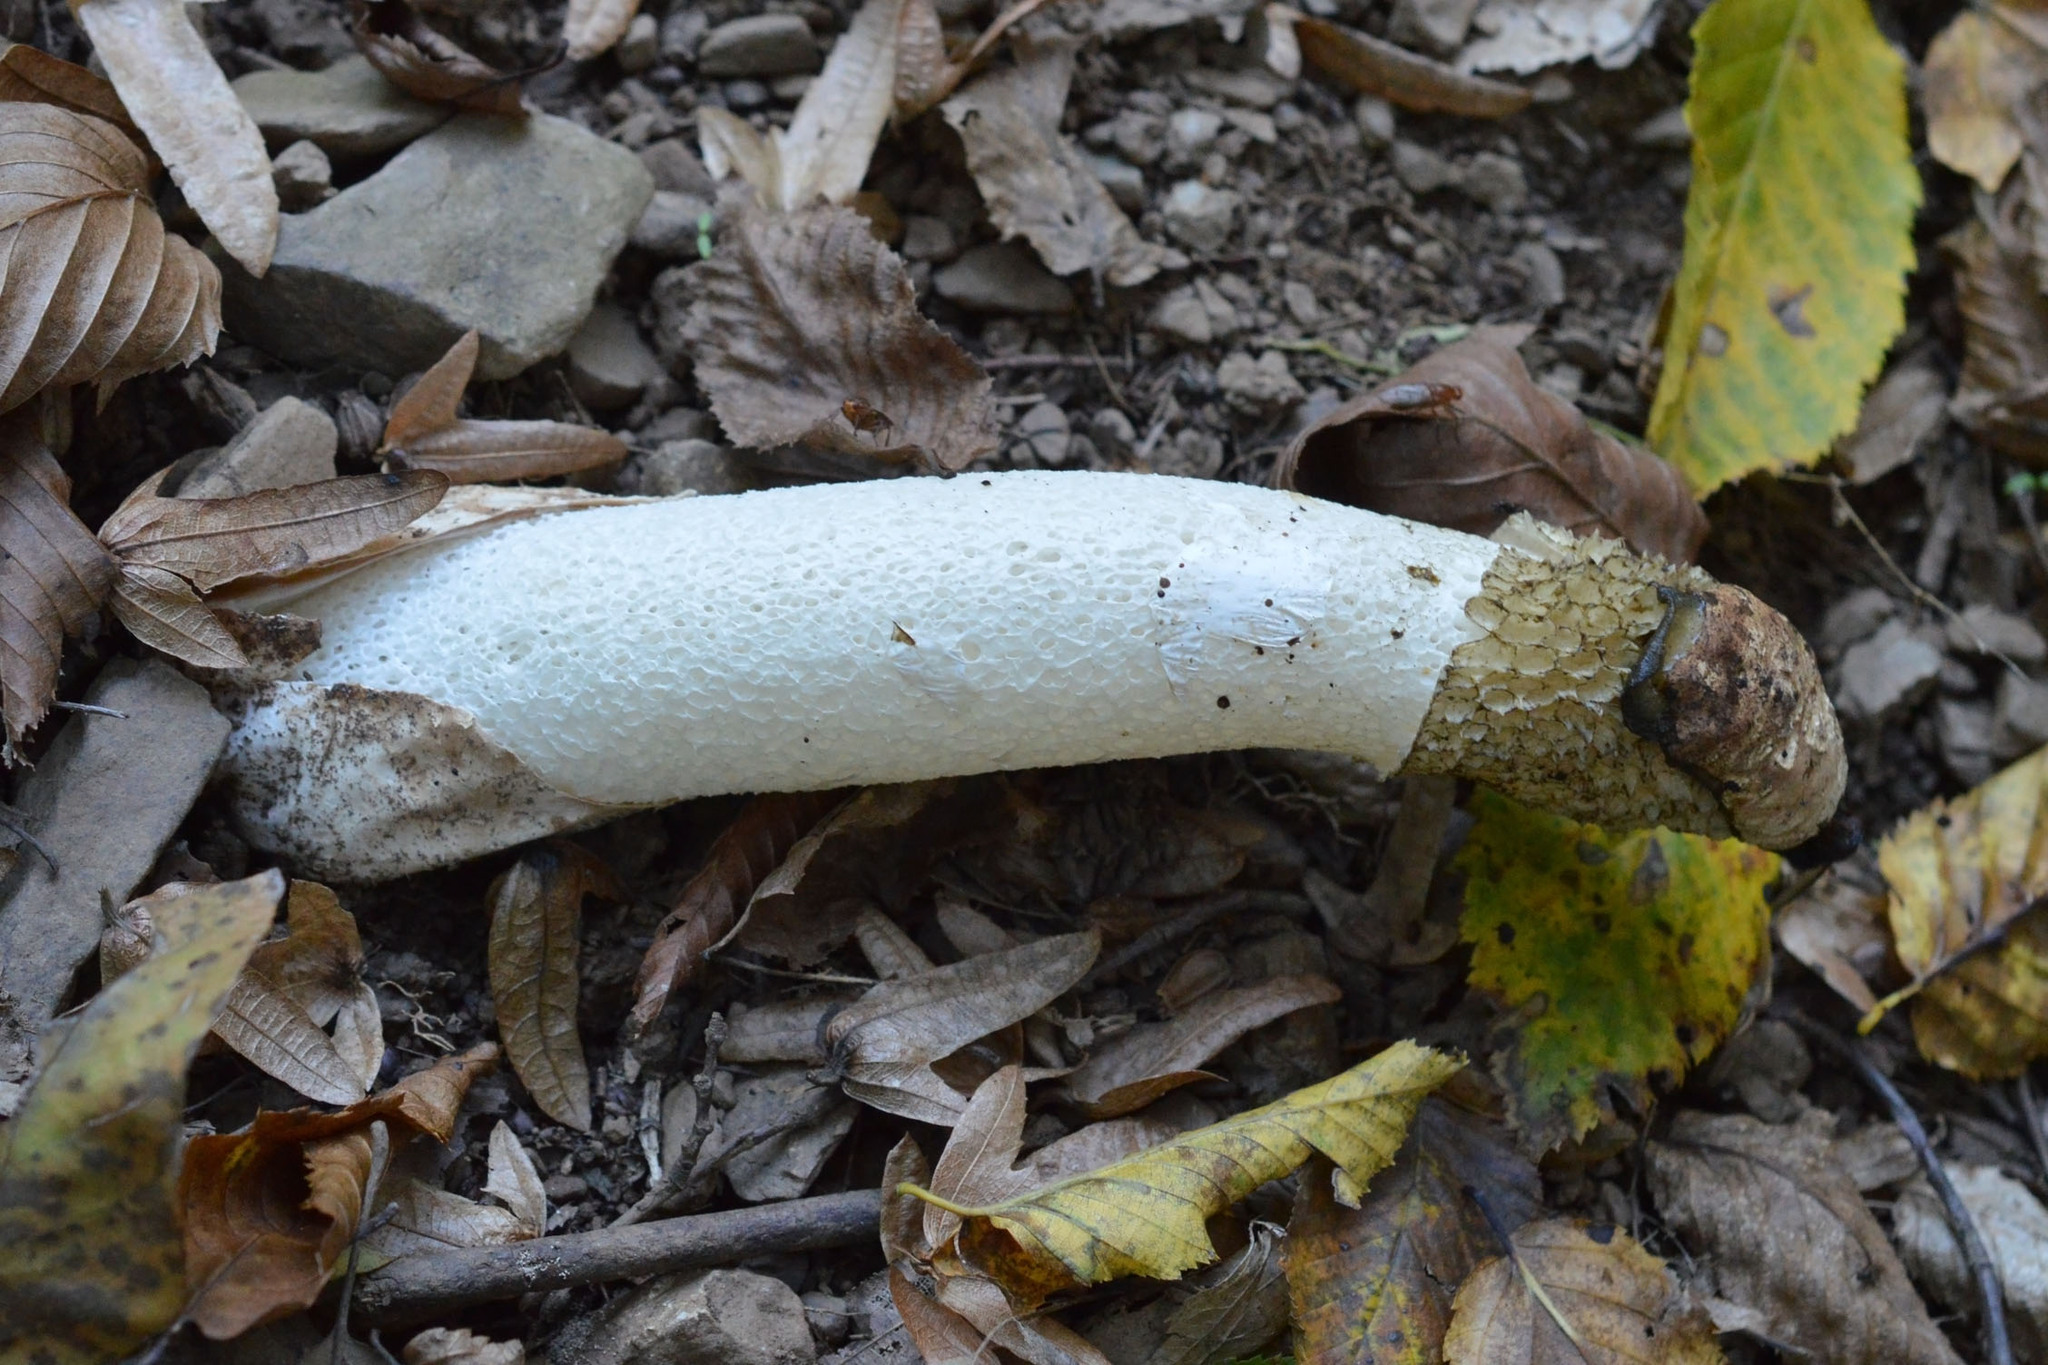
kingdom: Fungi
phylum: Basidiomycota
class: Agaricomycetes
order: Phallales
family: Phallaceae
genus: Phallus
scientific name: Phallus impudicus
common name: Common stinkhorn
